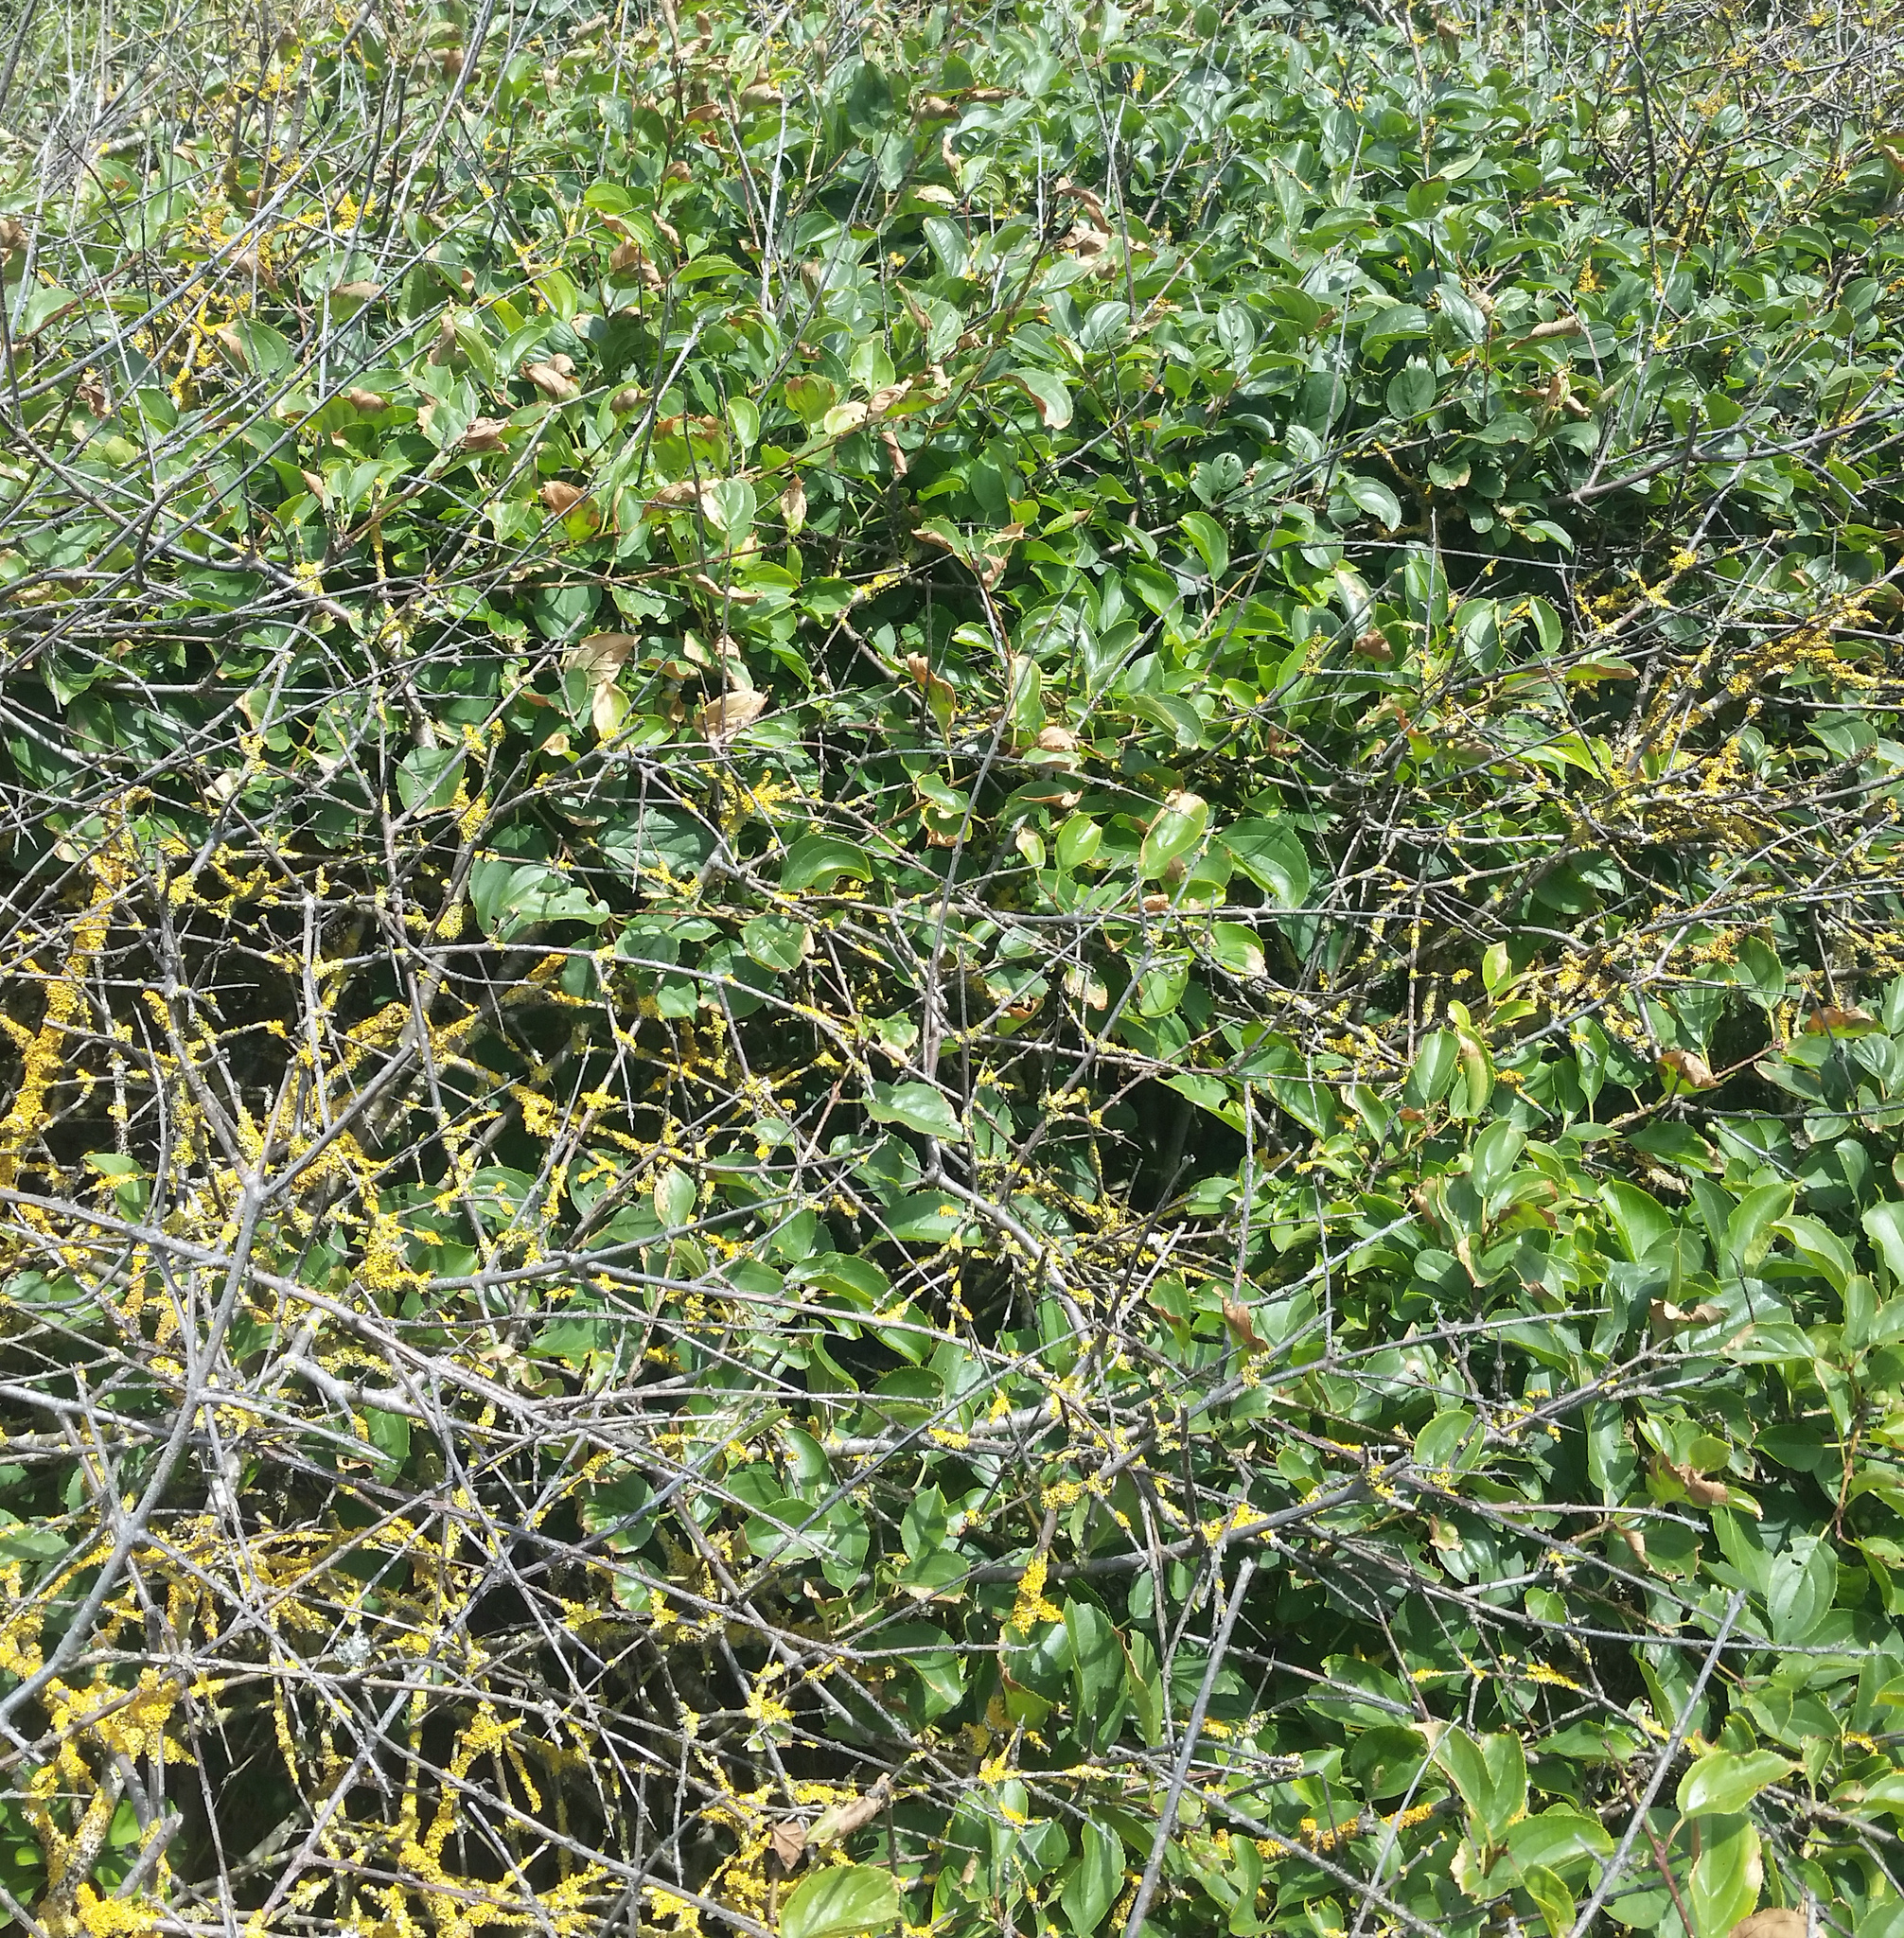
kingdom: Plantae
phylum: Tracheophyta
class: Magnoliopsida
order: Rosales
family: Rhamnaceae
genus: Rhamnus
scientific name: Rhamnus cathartica
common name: Common buckthorn
